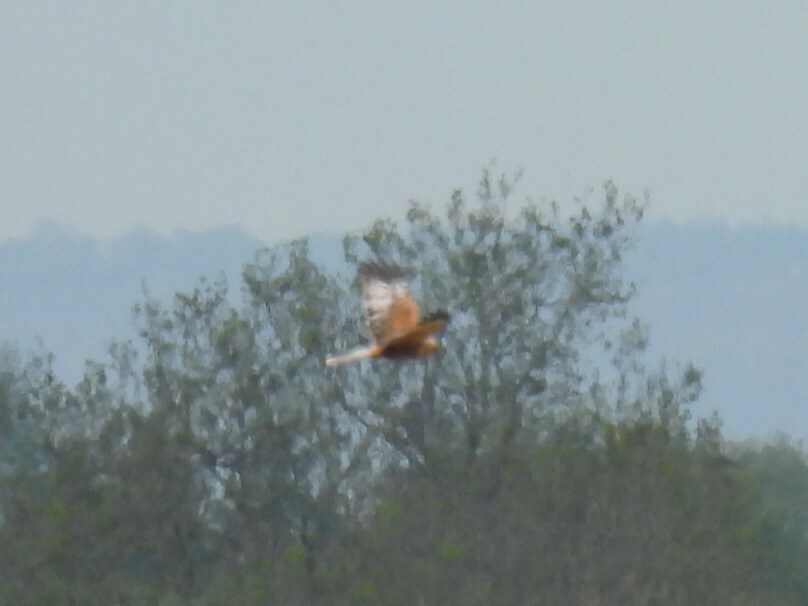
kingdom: Animalia
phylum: Chordata
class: Aves
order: Accipitriformes
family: Accipitridae
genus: Circus
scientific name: Circus aeruginosus
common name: Western marsh harrier
